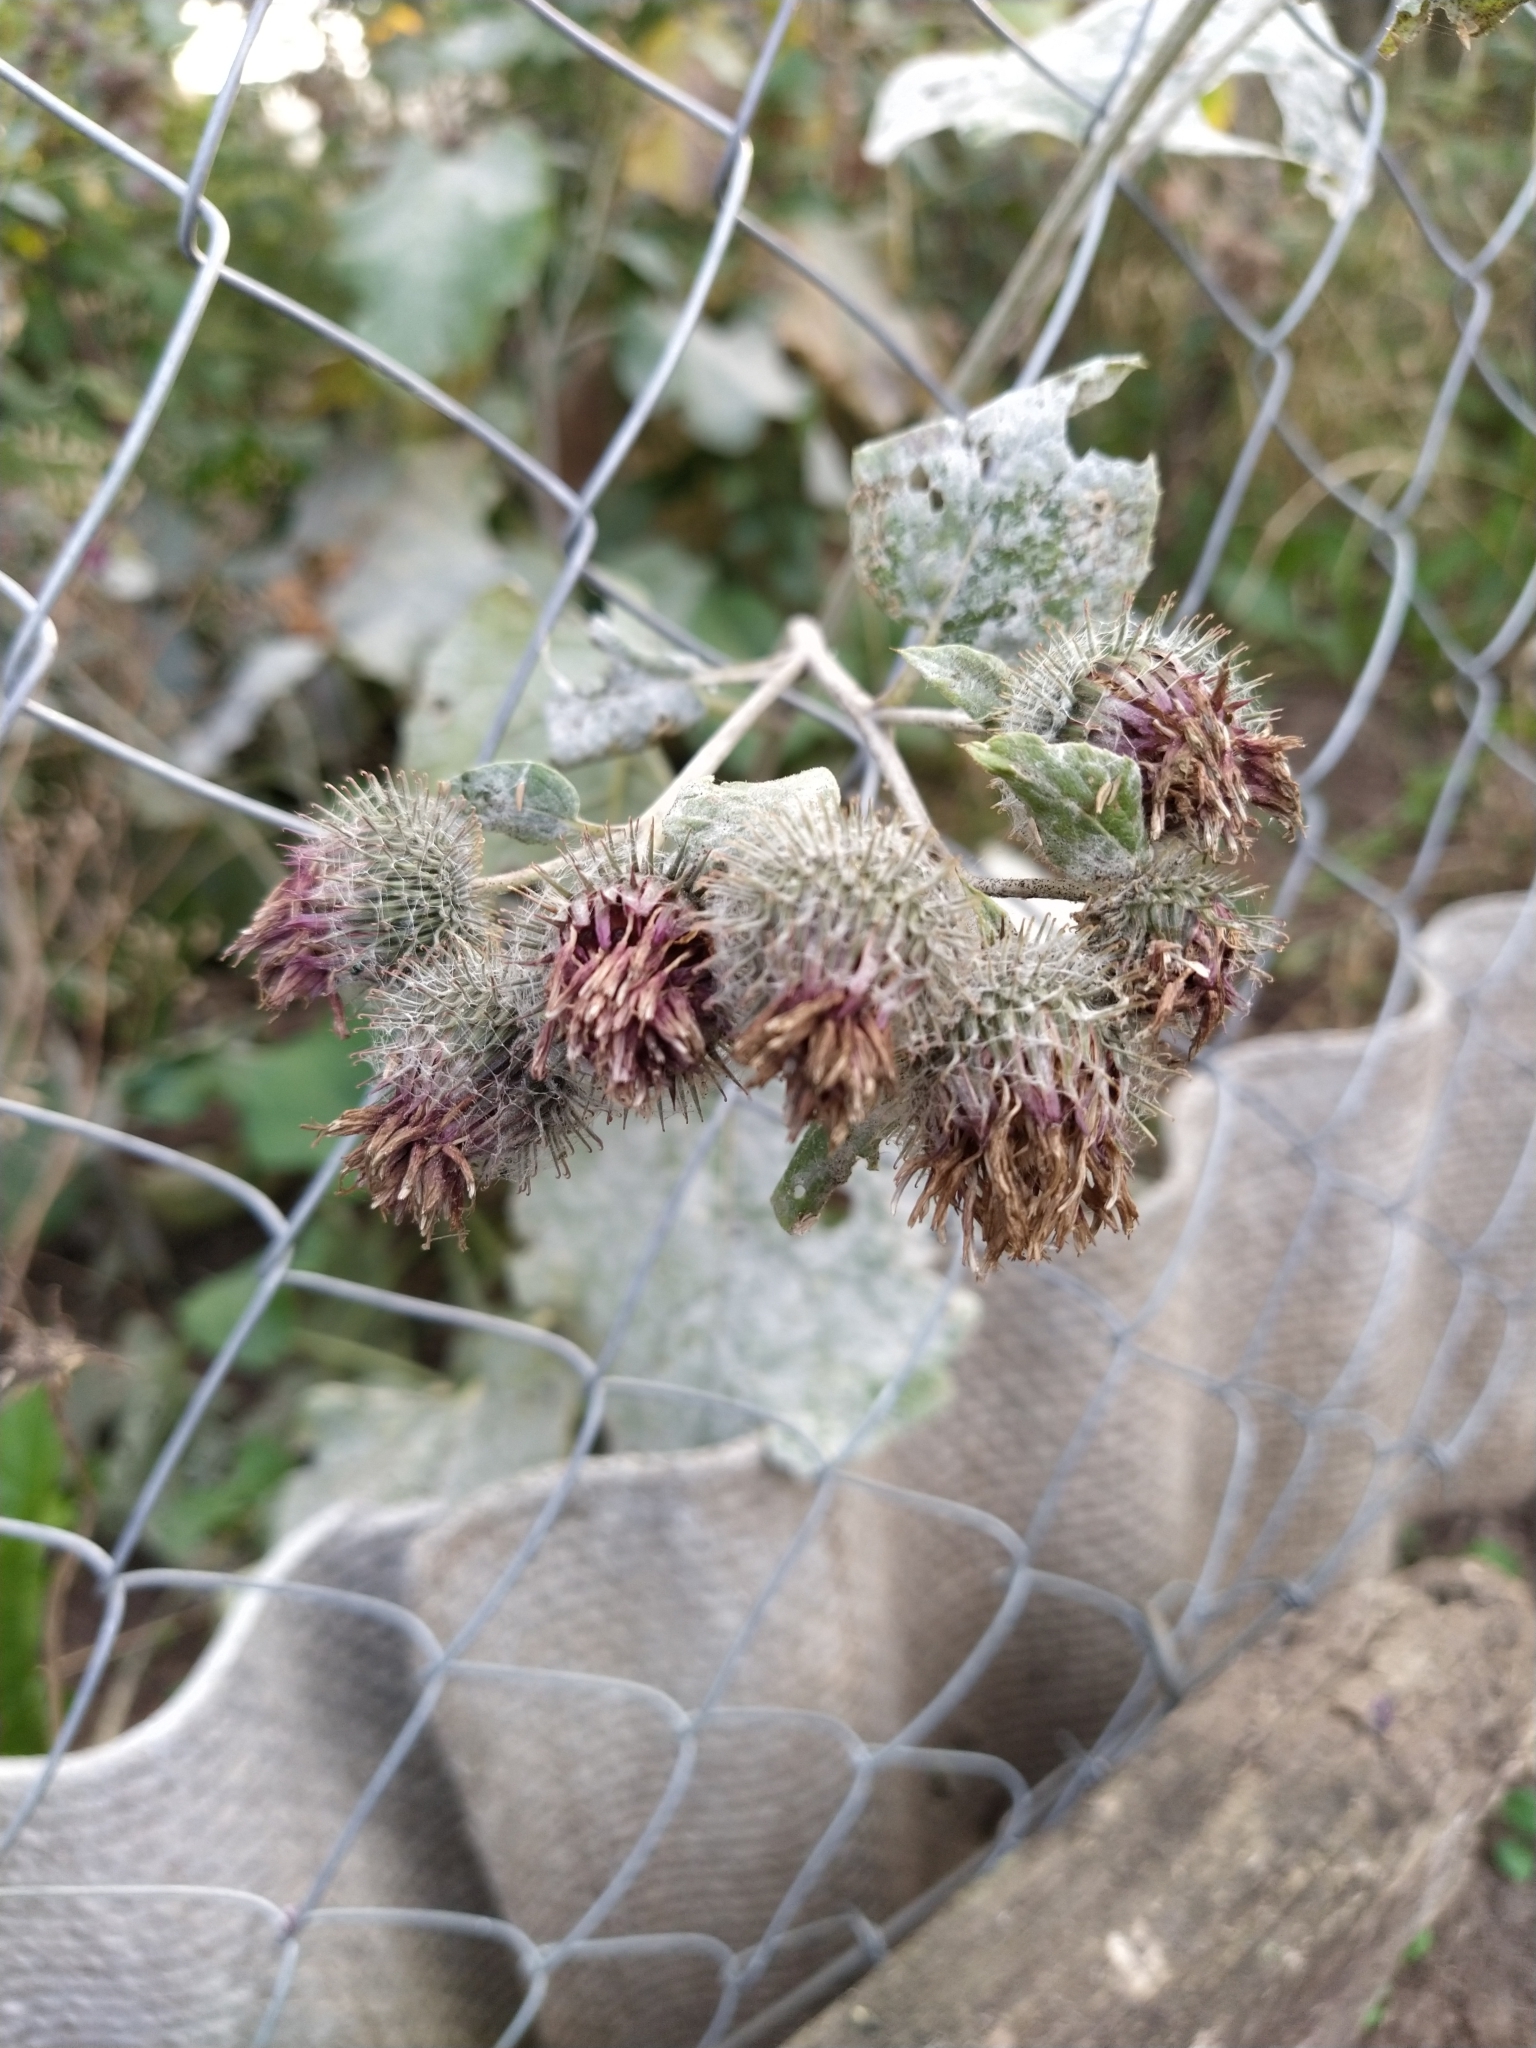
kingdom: Plantae
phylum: Tracheophyta
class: Magnoliopsida
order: Asterales
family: Asteraceae
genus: Arctium
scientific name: Arctium tomentosum
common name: Woolly burdock
